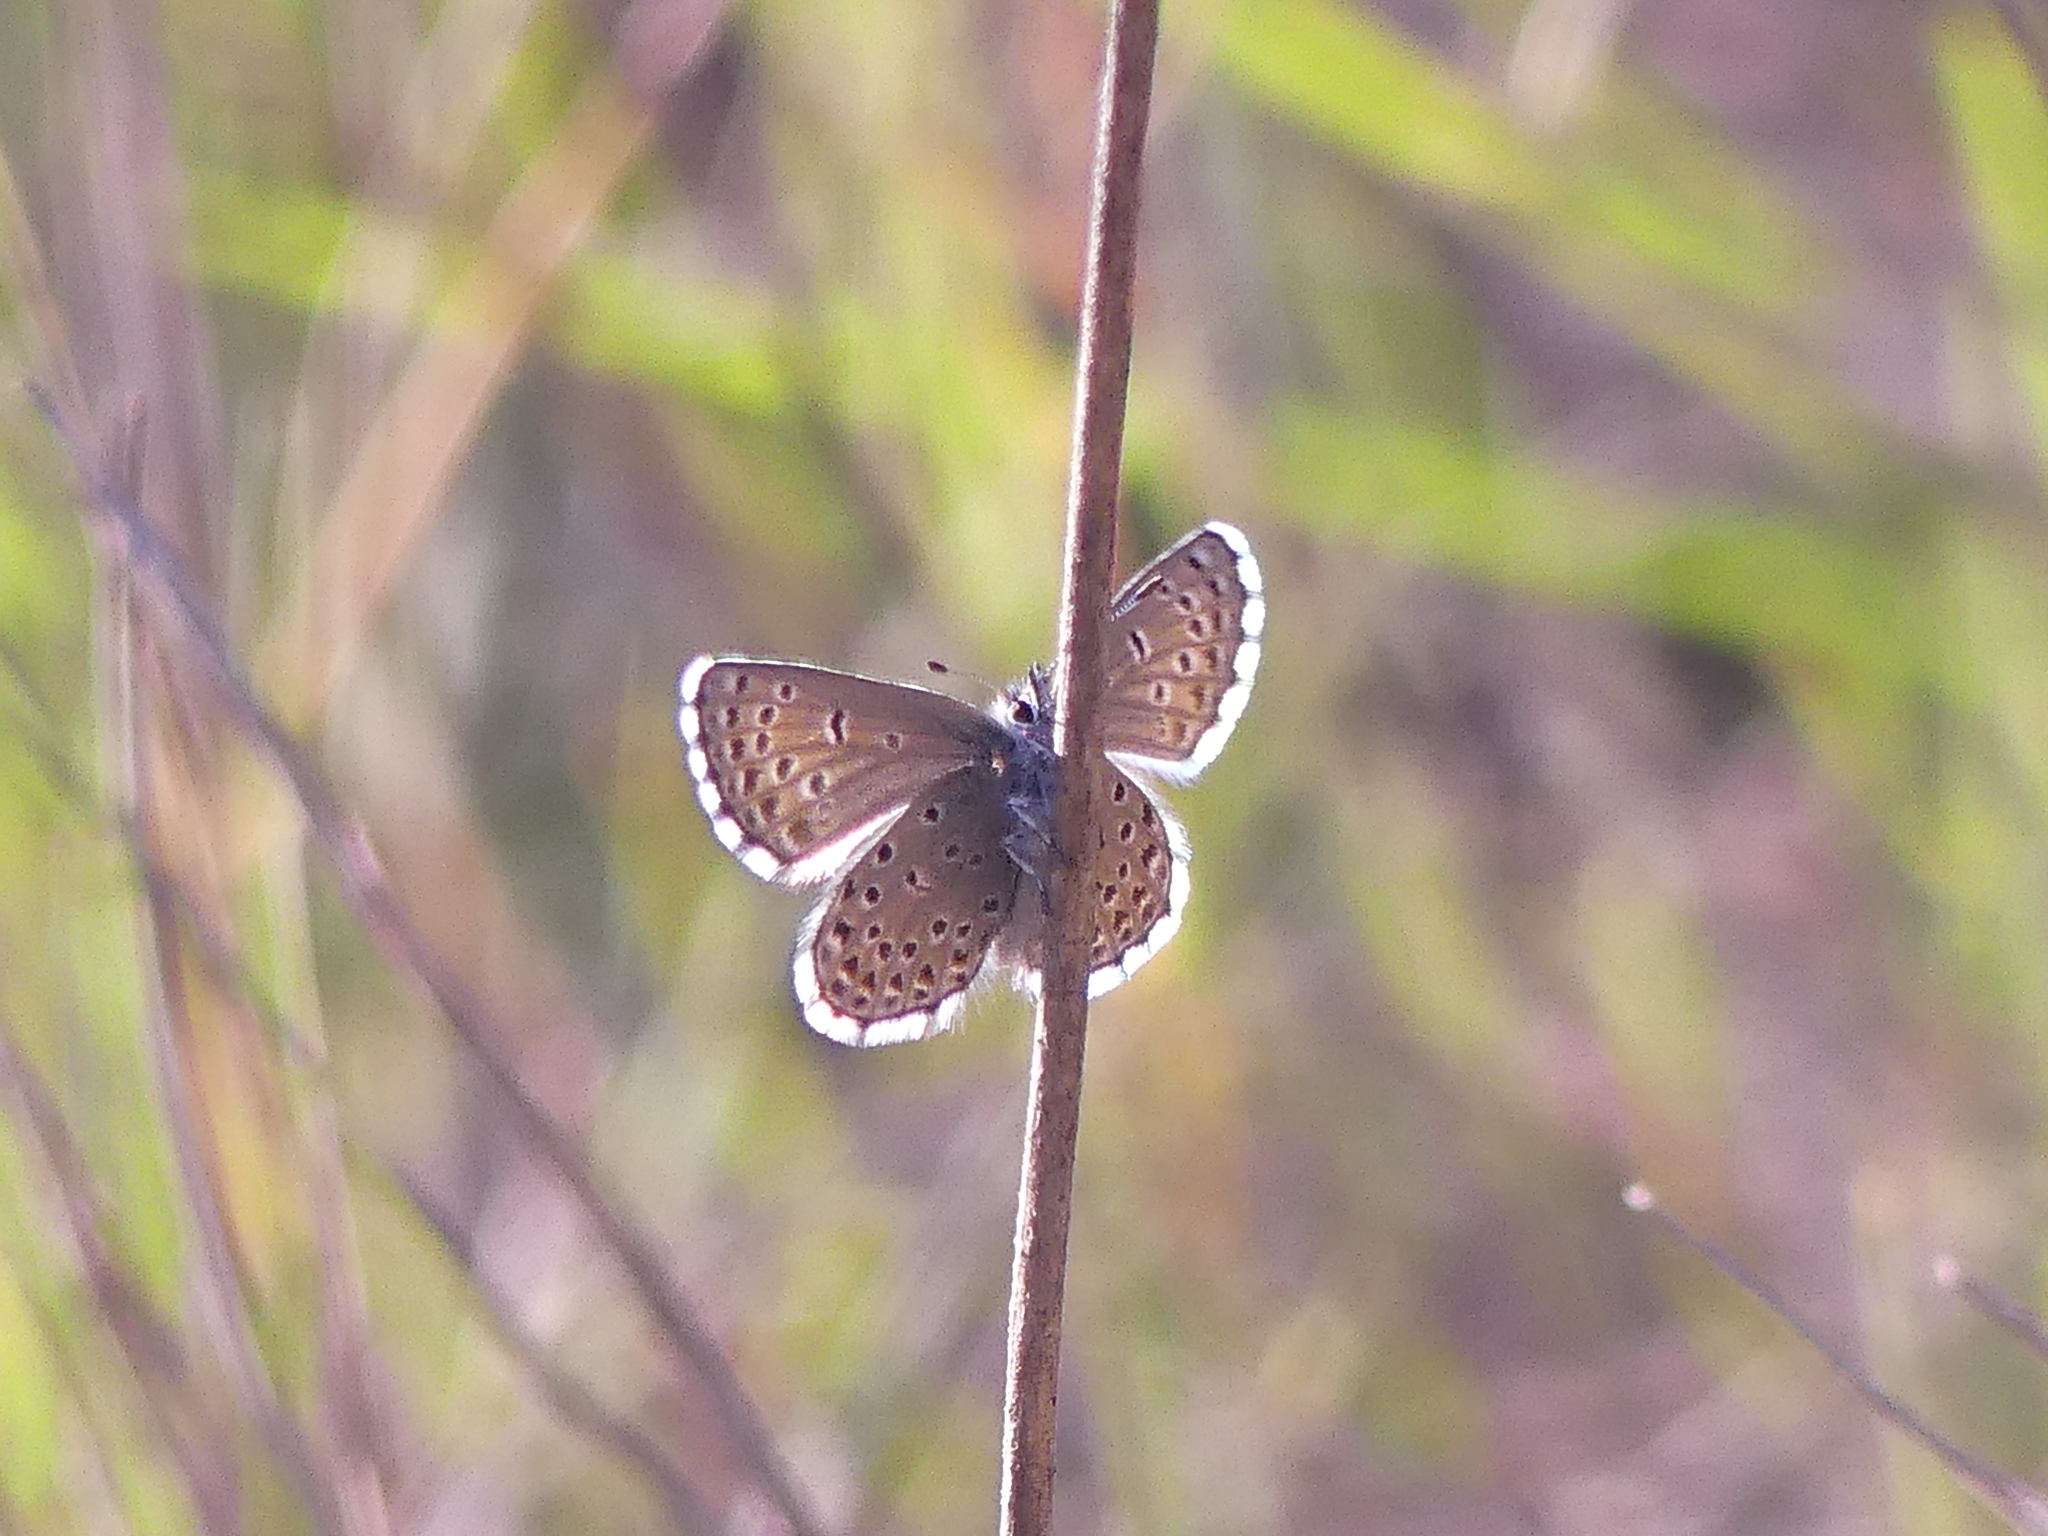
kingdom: Animalia
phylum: Arthropoda
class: Insecta
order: Lepidoptera
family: Lycaenidae
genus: Pseudophilotes
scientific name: Pseudophilotes baton
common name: Baton blue
